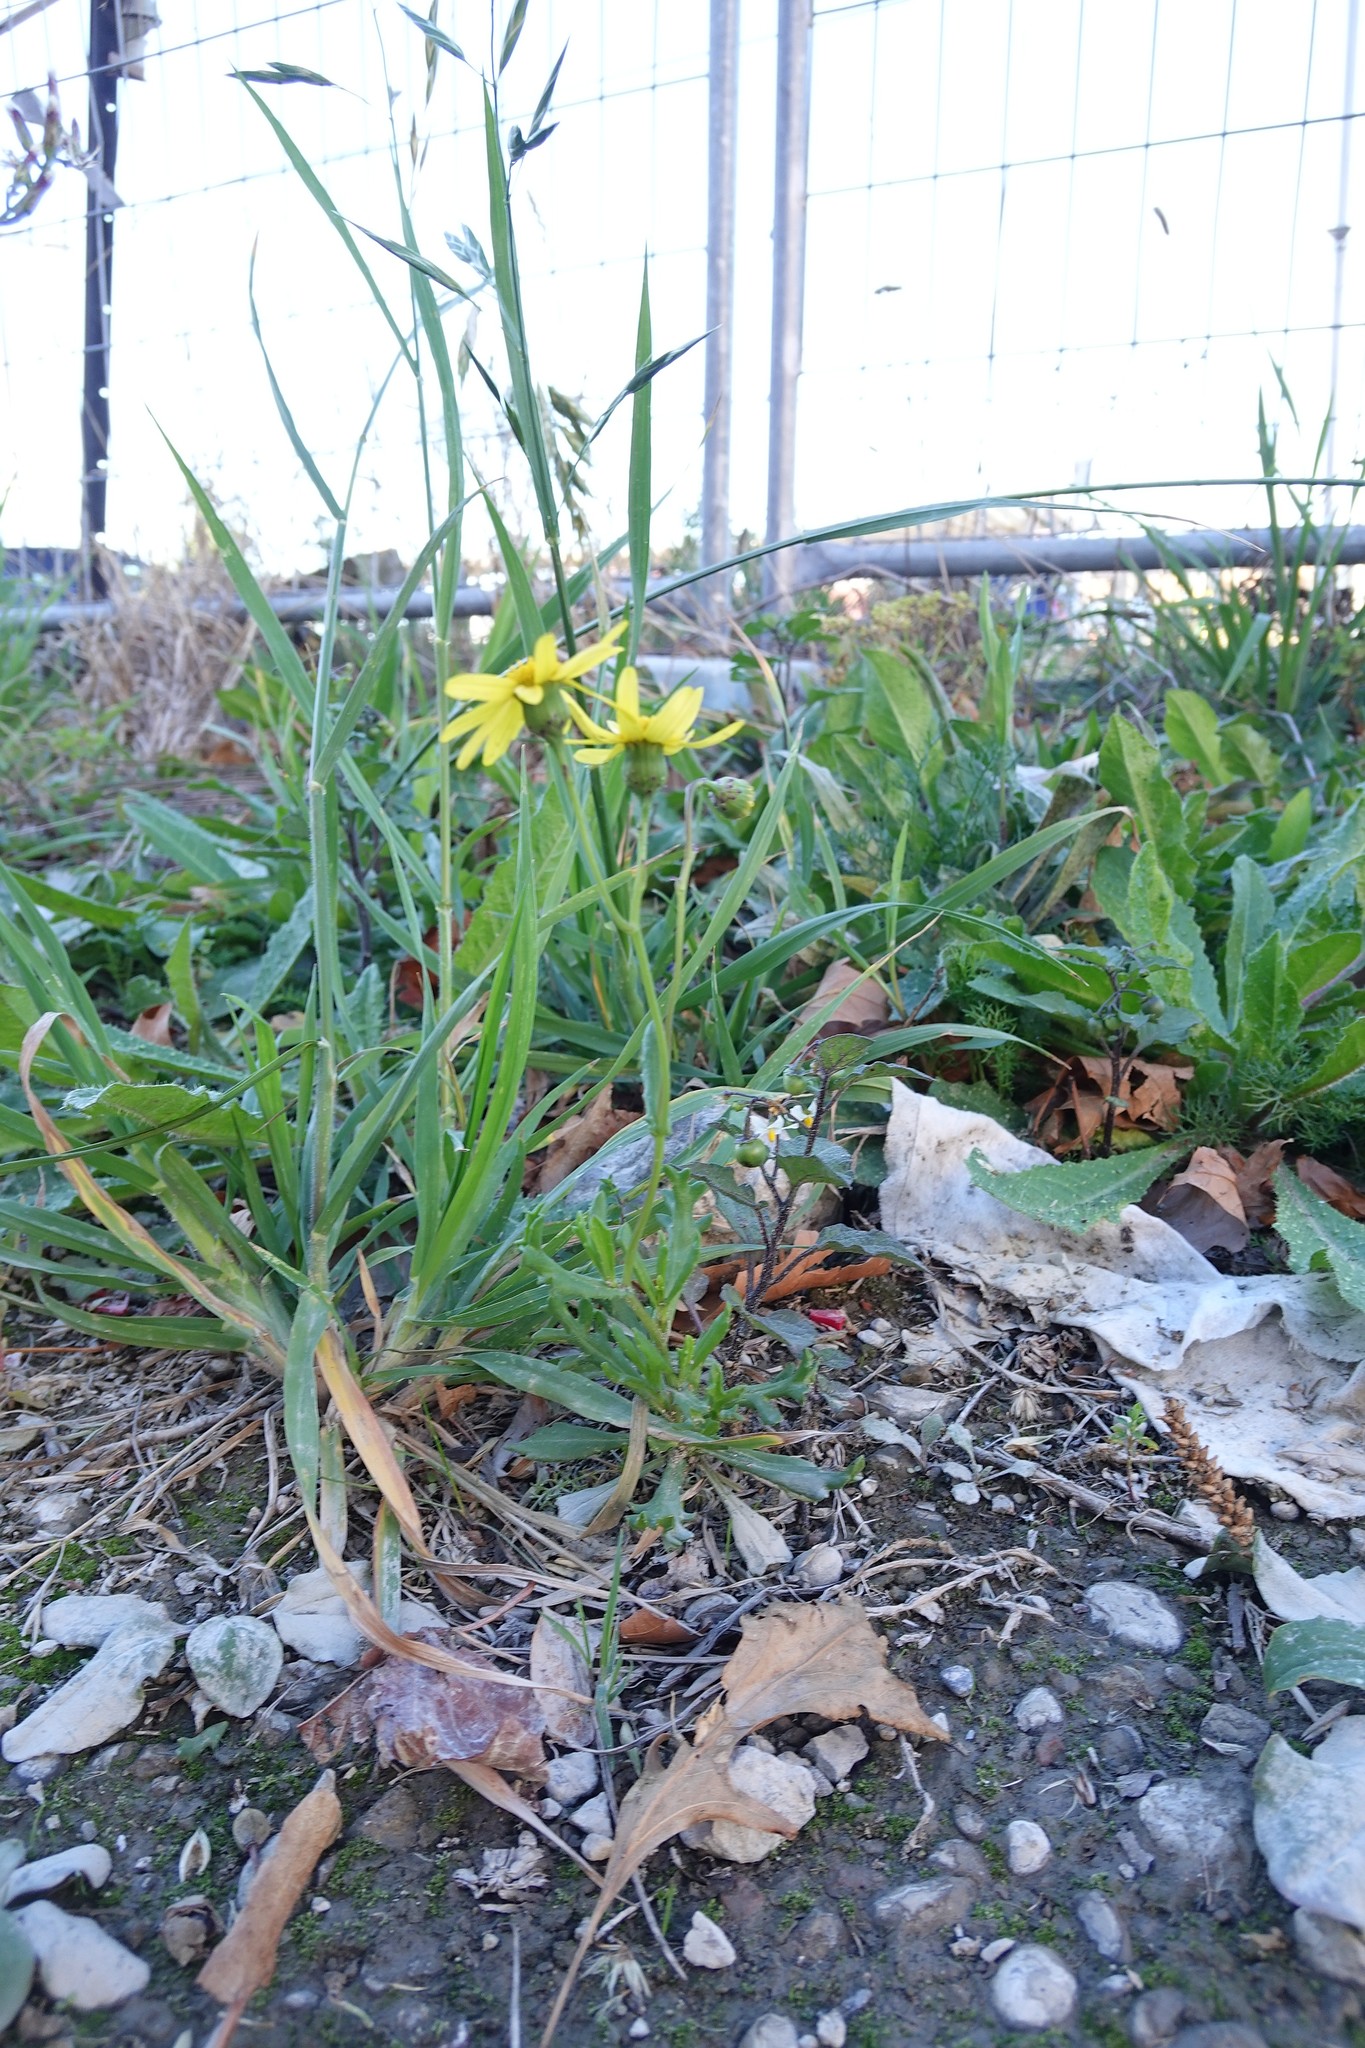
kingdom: Plantae
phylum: Tracheophyta
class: Magnoliopsida
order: Asterales
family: Asteraceae
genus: Senecio
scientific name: Senecio skirrhodon
